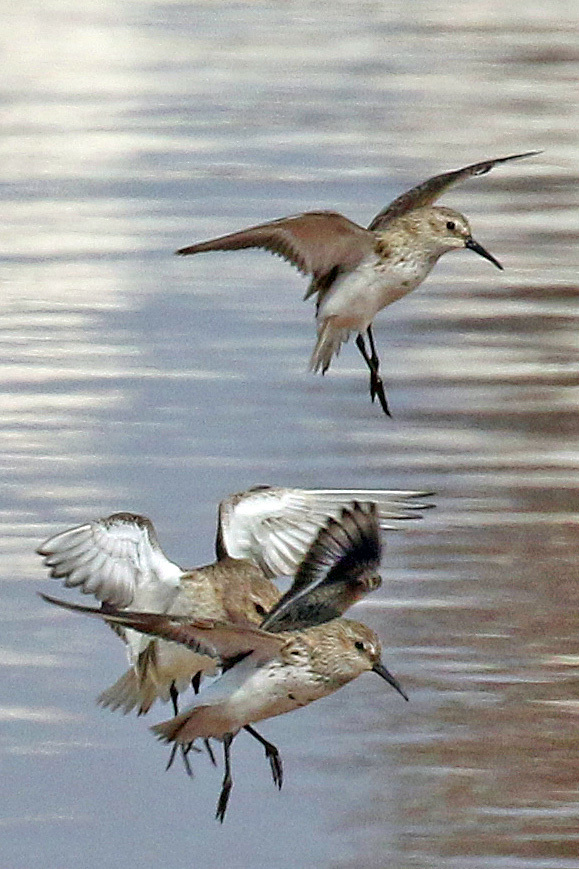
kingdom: Animalia
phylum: Chordata
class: Aves
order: Charadriiformes
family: Scolopacidae
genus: Calidris
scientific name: Calidris alpina
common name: Dunlin
